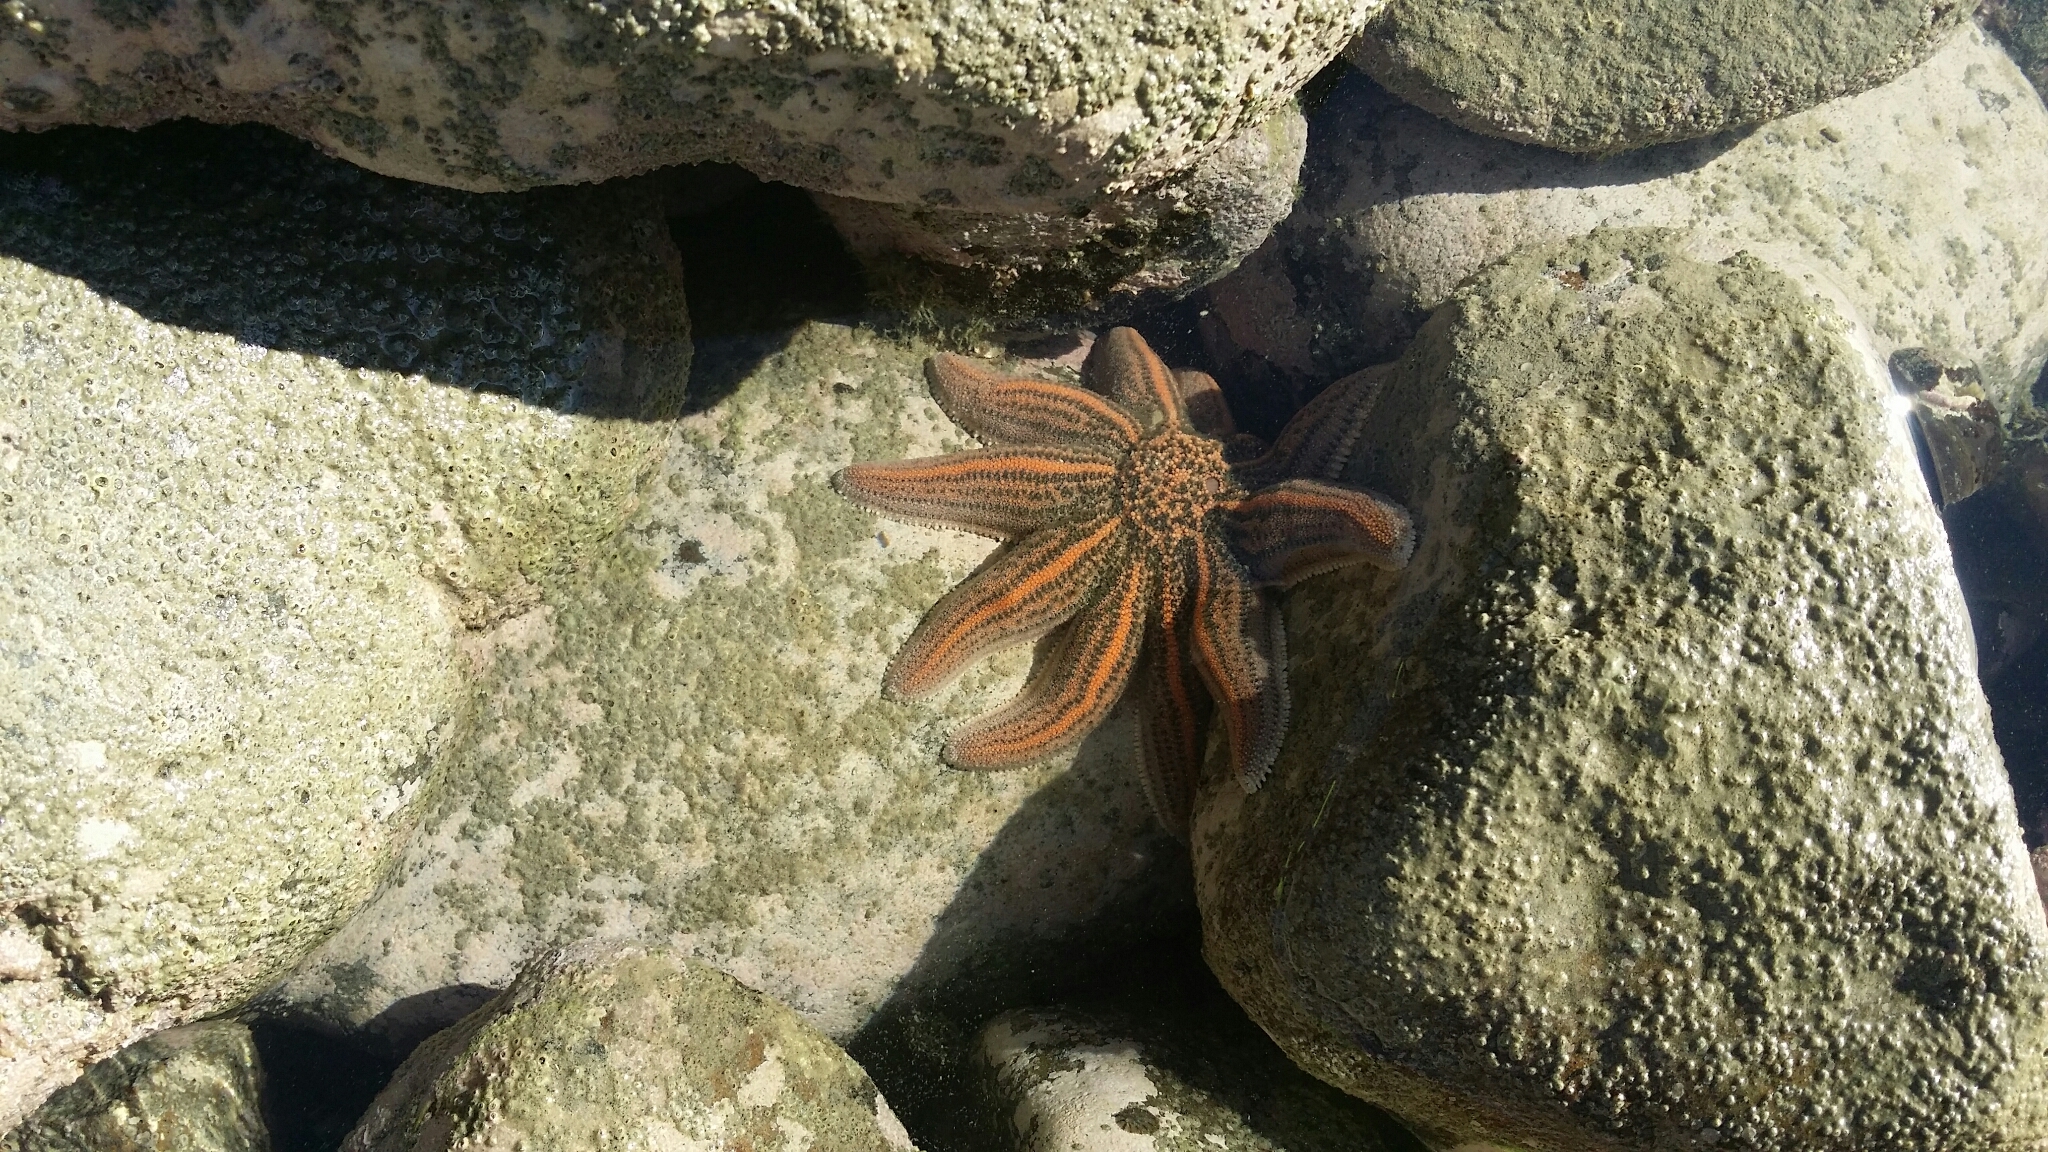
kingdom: Animalia
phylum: Echinodermata
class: Asteroidea
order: Forcipulatida
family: Stichasteridae
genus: Stichaster
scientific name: Stichaster australis
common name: Reef starfish
